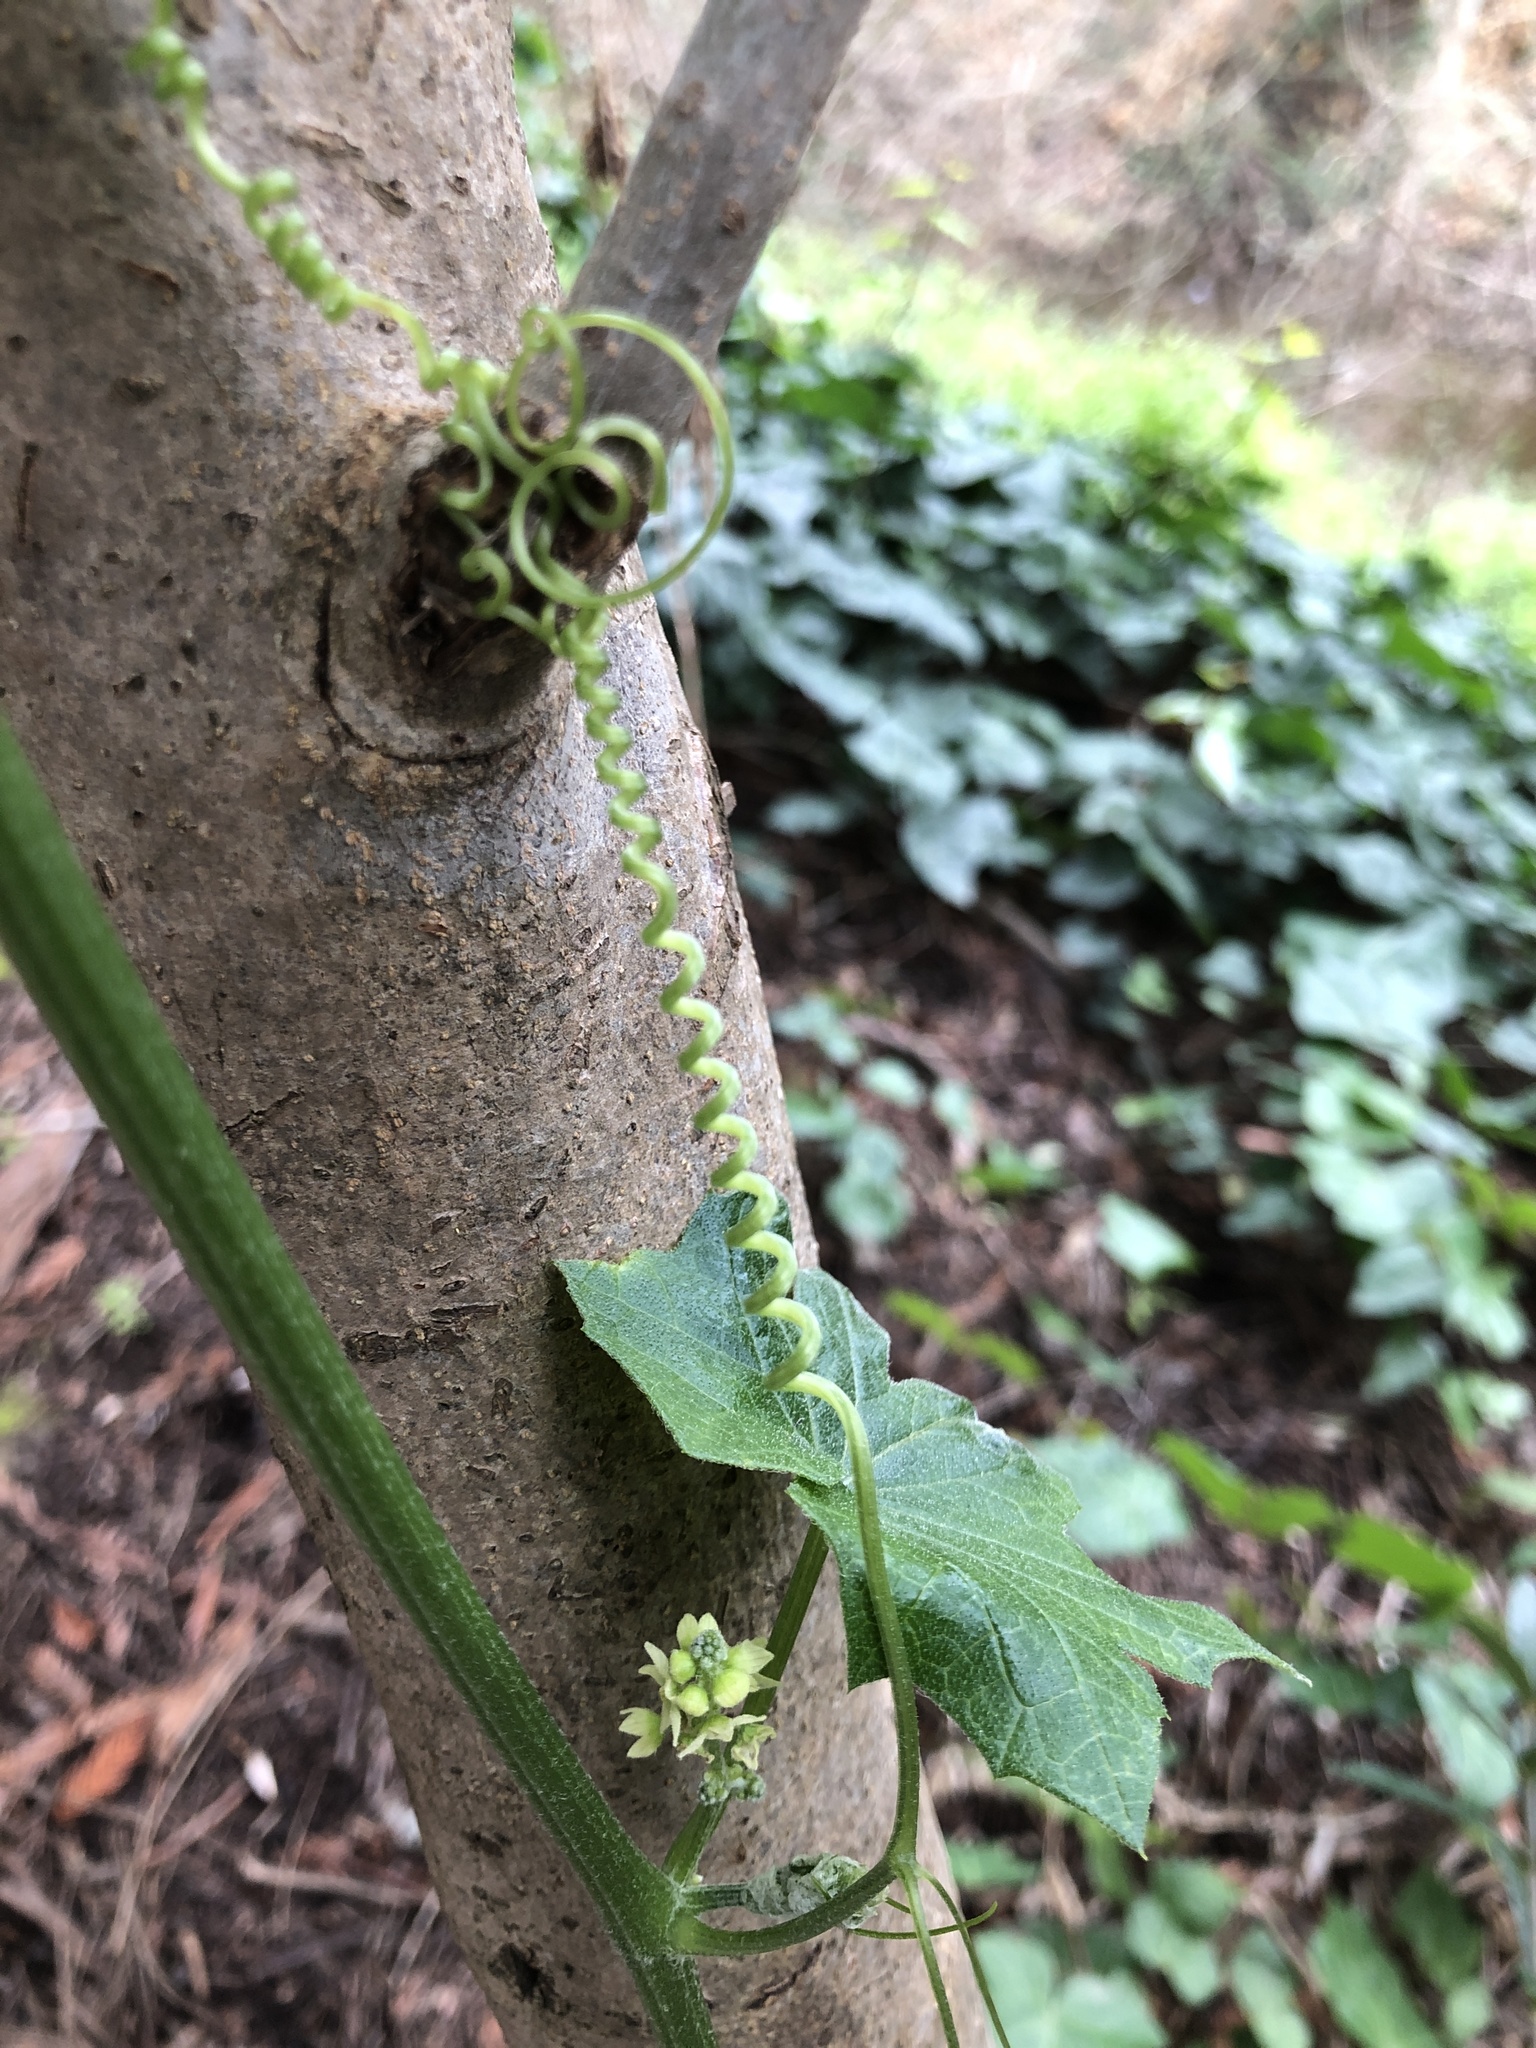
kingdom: Plantae
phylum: Tracheophyta
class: Magnoliopsida
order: Cucurbitales
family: Cucurbitaceae
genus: Marah
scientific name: Marah fabacea
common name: California manroot
